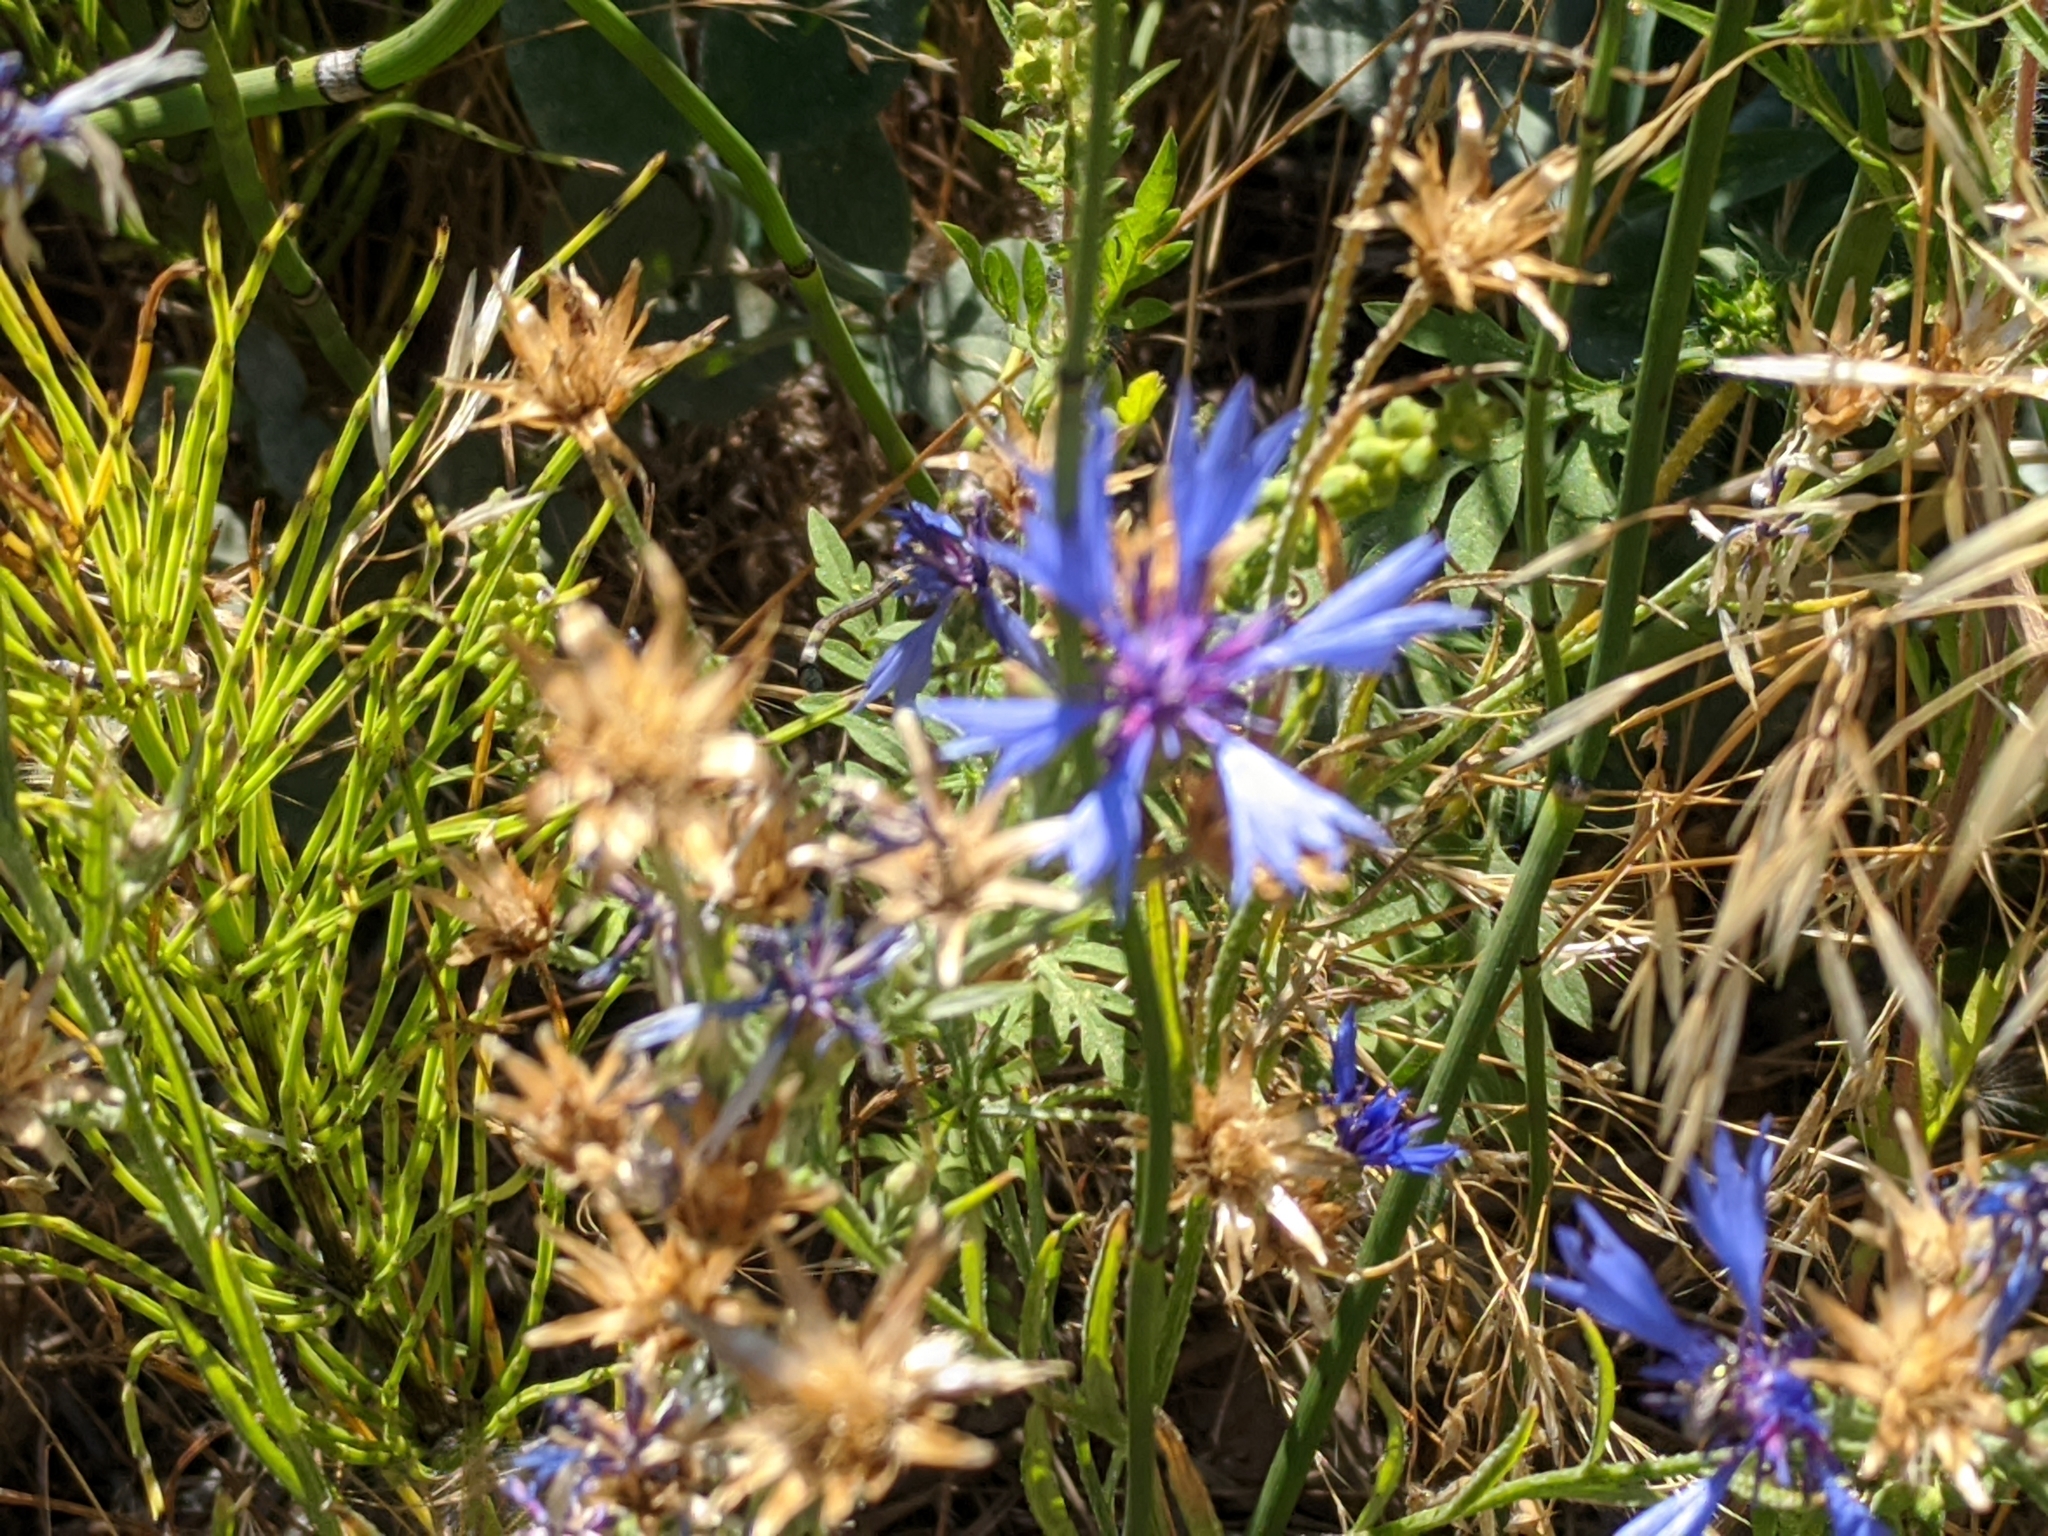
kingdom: Plantae
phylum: Tracheophyta
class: Magnoliopsida
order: Asterales
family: Asteraceae
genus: Centaurea
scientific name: Centaurea cyanus
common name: Cornflower
